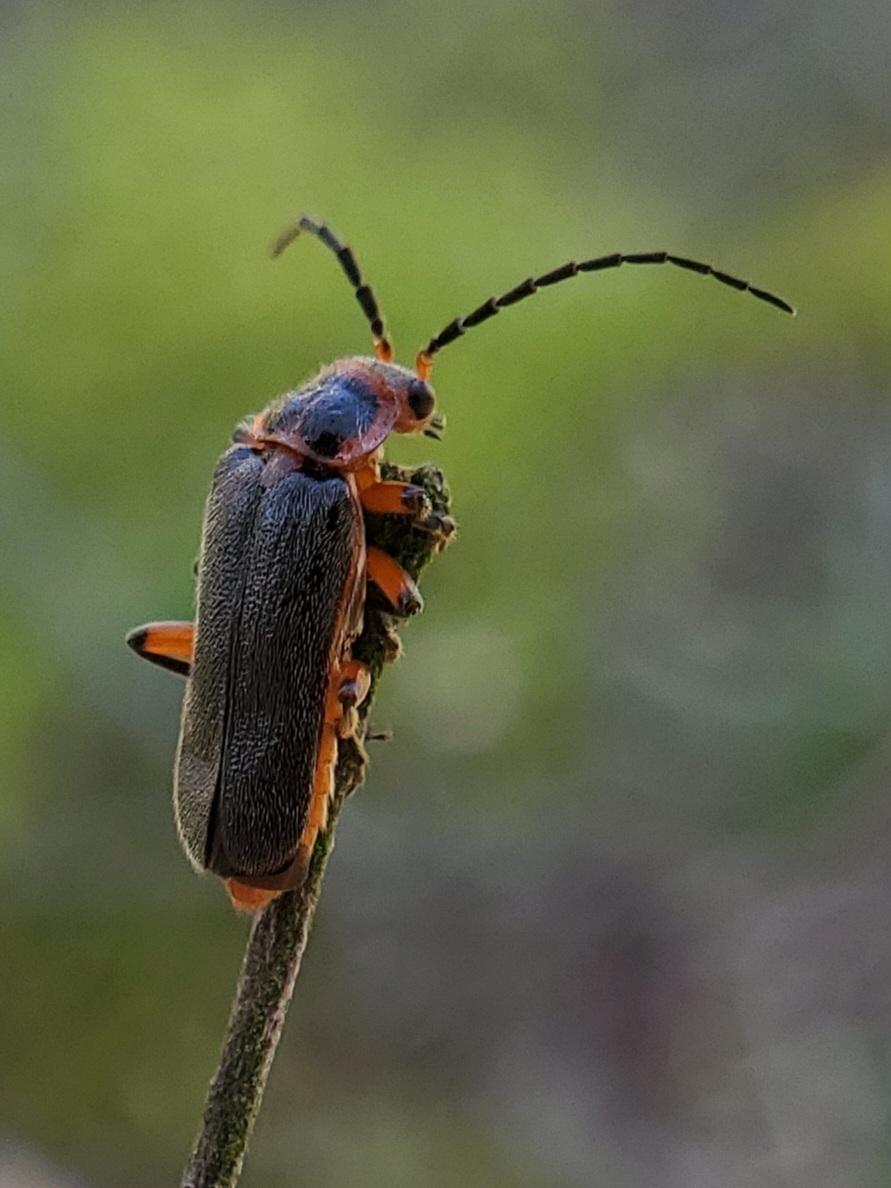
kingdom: Animalia
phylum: Arthropoda
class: Insecta
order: Coleoptera
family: Cantharidae
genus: Atalantycha
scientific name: Atalantycha bilineata
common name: Two-lined leatherwing
